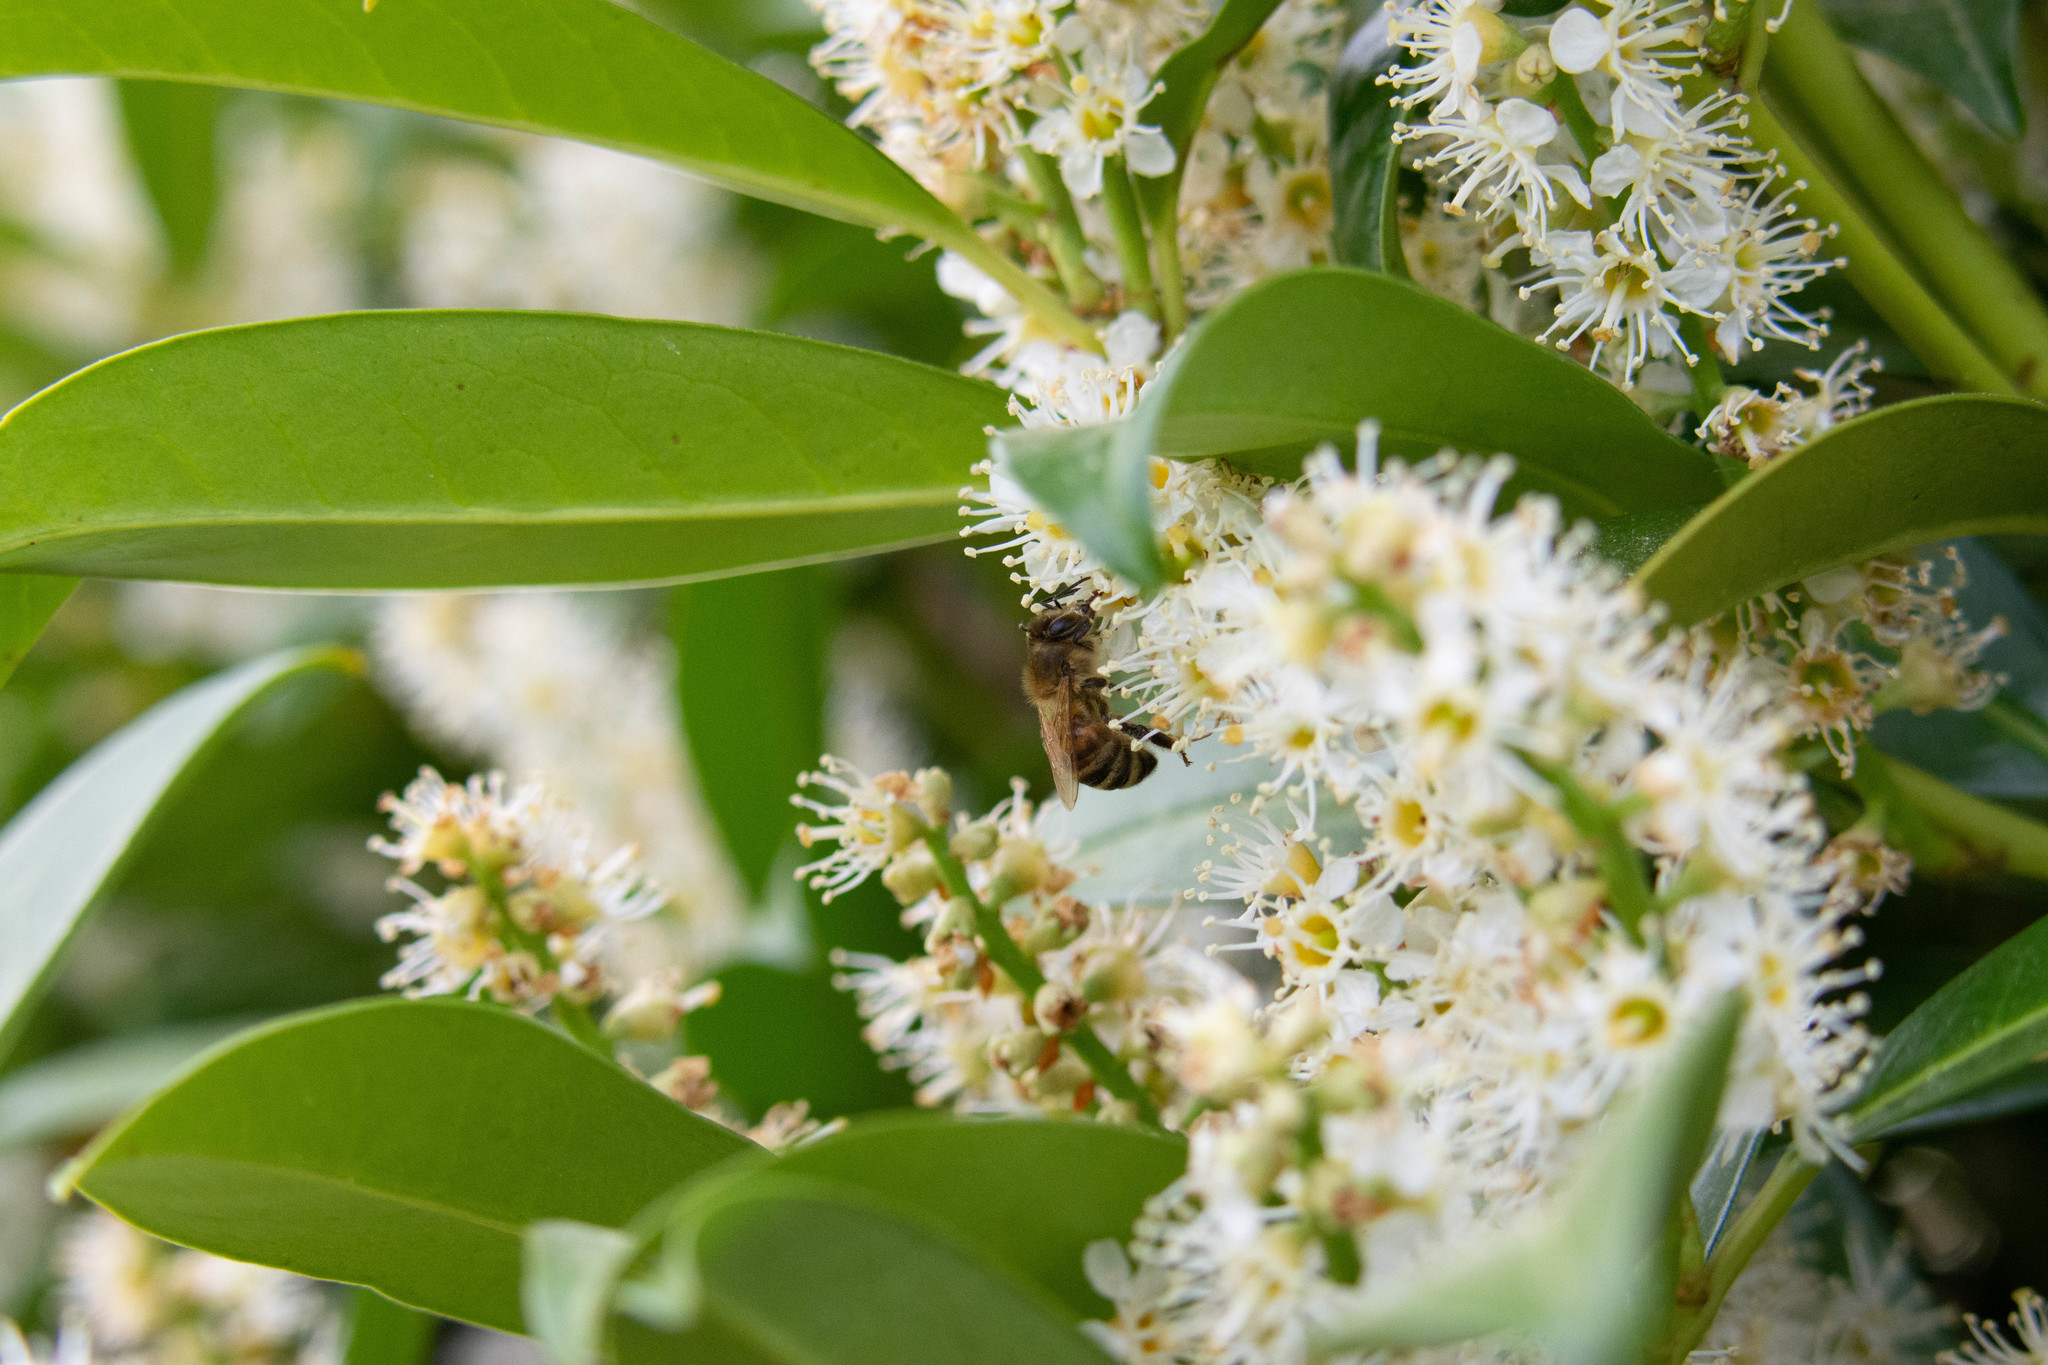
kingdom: Animalia
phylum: Arthropoda
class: Insecta
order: Hymenoptera
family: Apidae
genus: Apis
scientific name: Apis mellifera
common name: Honey bee
